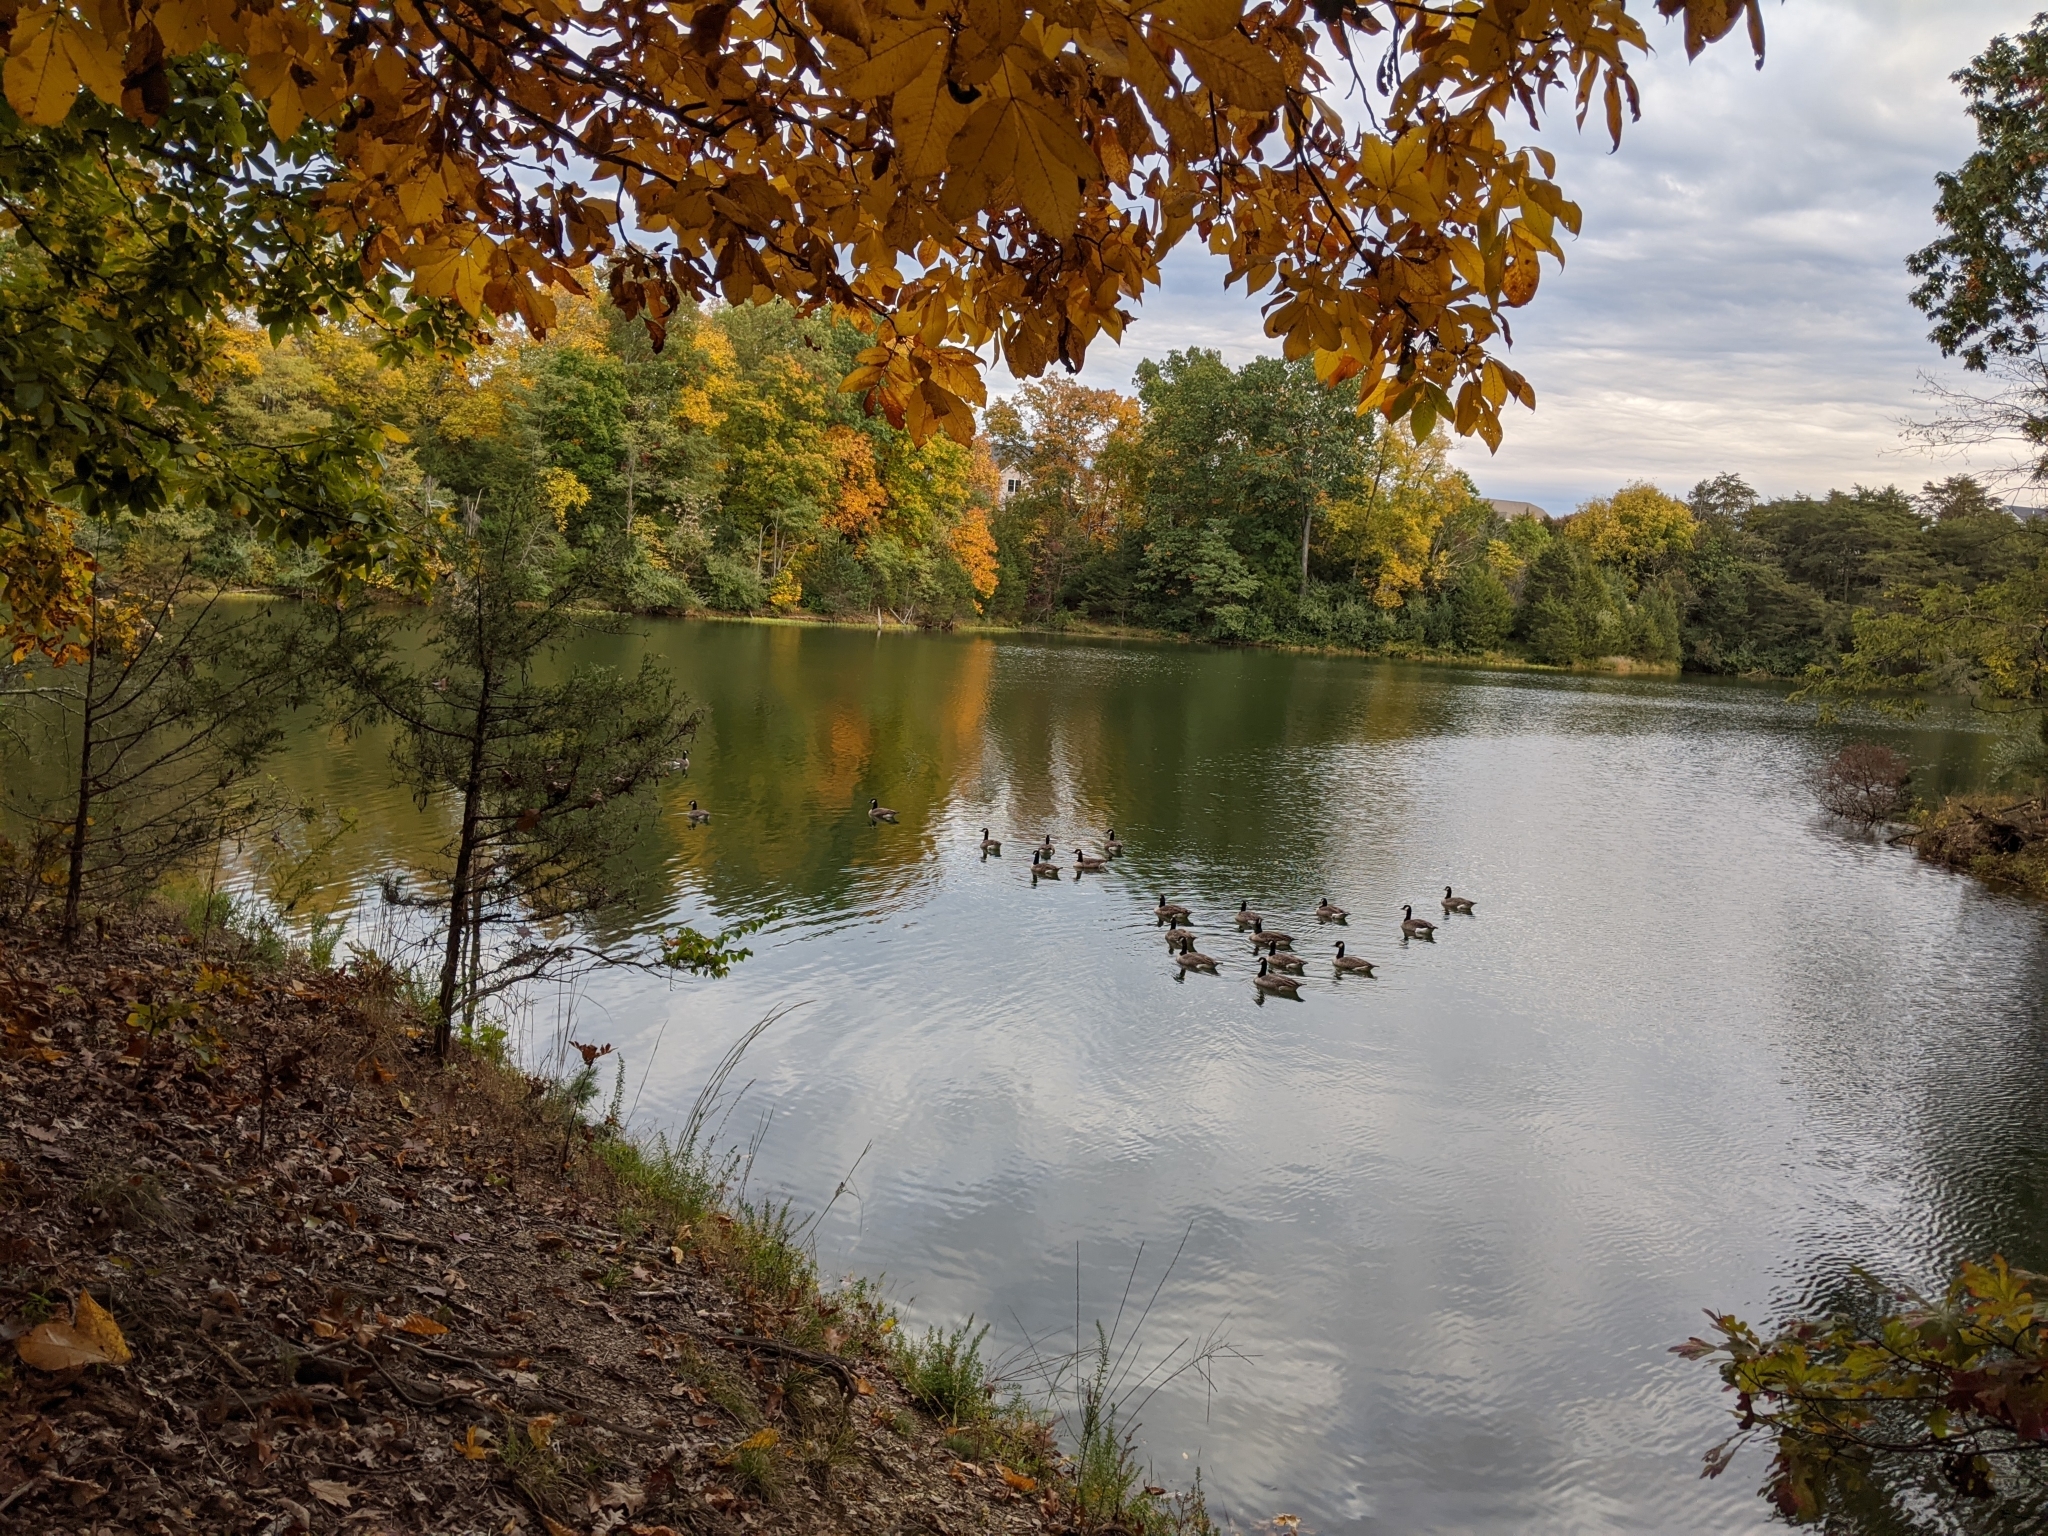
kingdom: Animalia
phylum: Chordata
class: Aves
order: Anseriformes
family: Anatidae
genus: Branta
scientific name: Branta canadensis
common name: Canada goose
